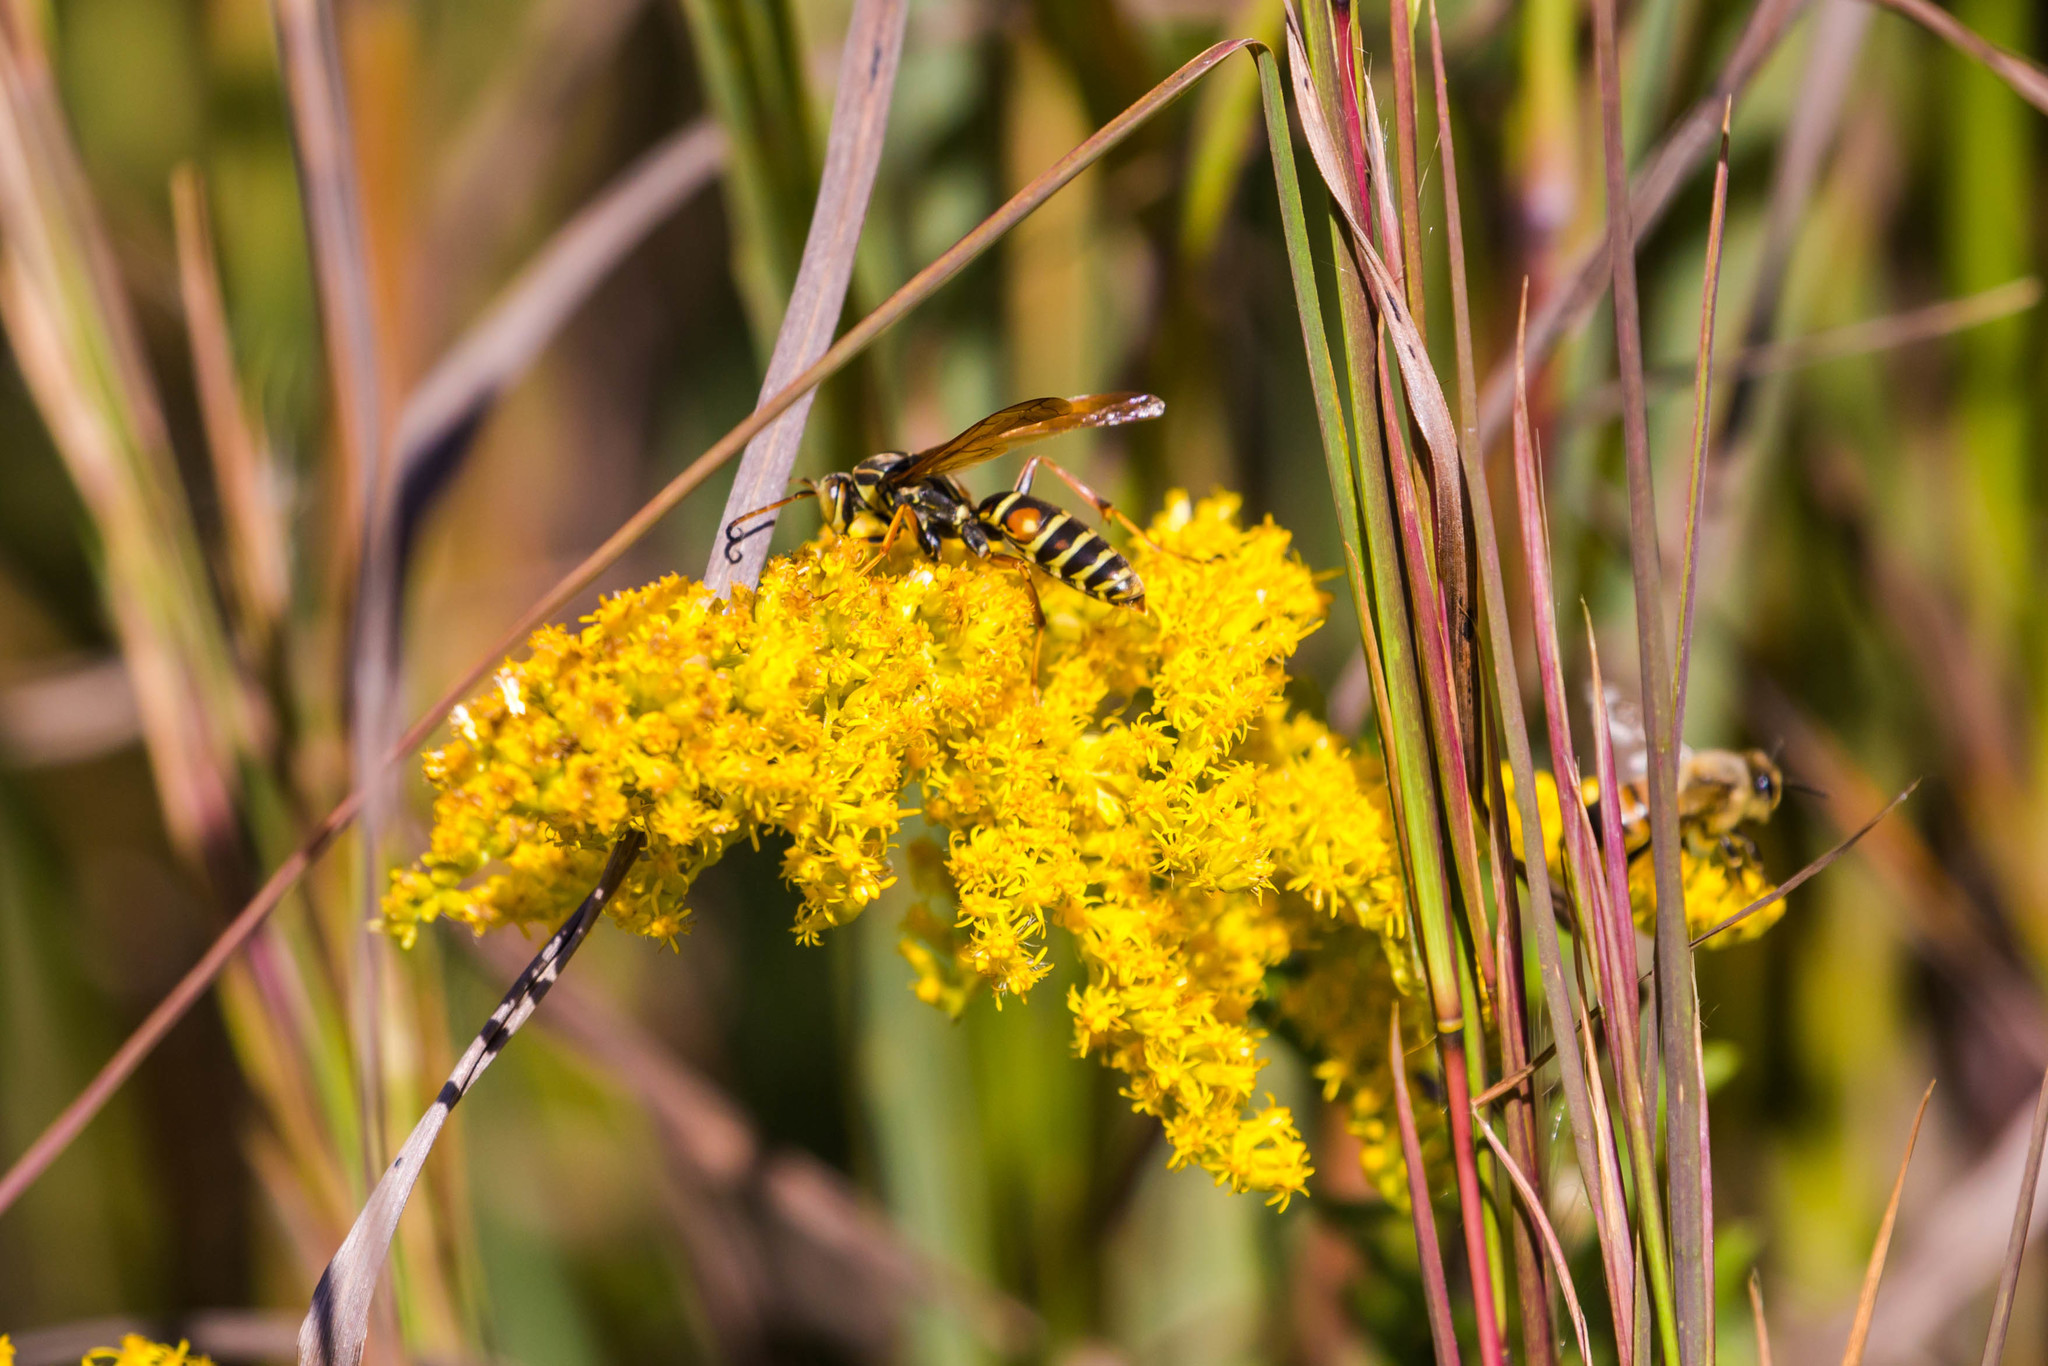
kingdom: Animalia
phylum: Arthropoda
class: Insecta
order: Hymenoptera
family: Eumenidae
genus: Polistes
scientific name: Polistes fuscatus
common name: Dark paper wasp
